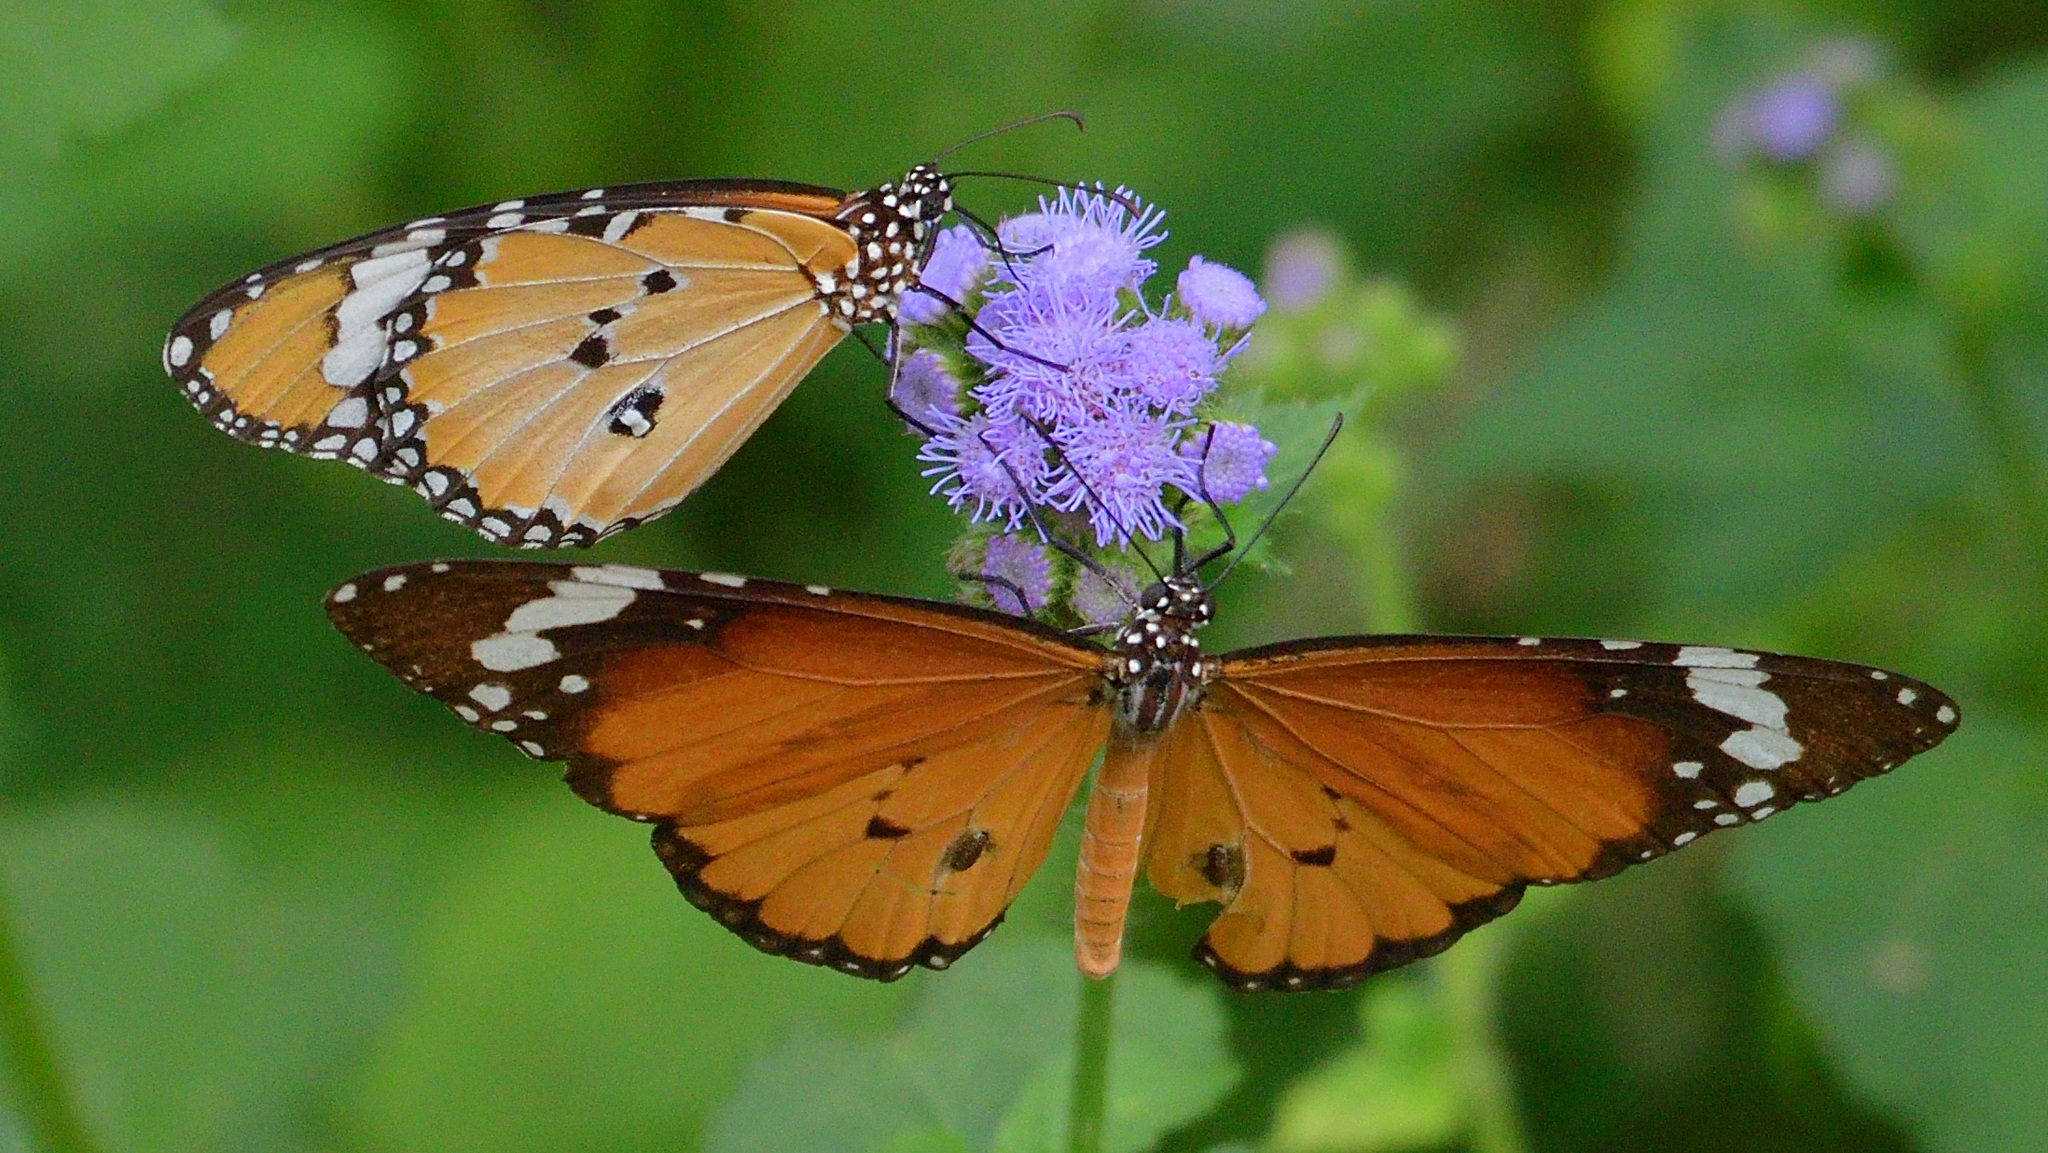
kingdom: Animalia
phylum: Arthropoda
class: Insecta
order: Lepidoptera
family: Nymphalidae
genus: Danaus
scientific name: Danaus chrysippus
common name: Plain tiger
